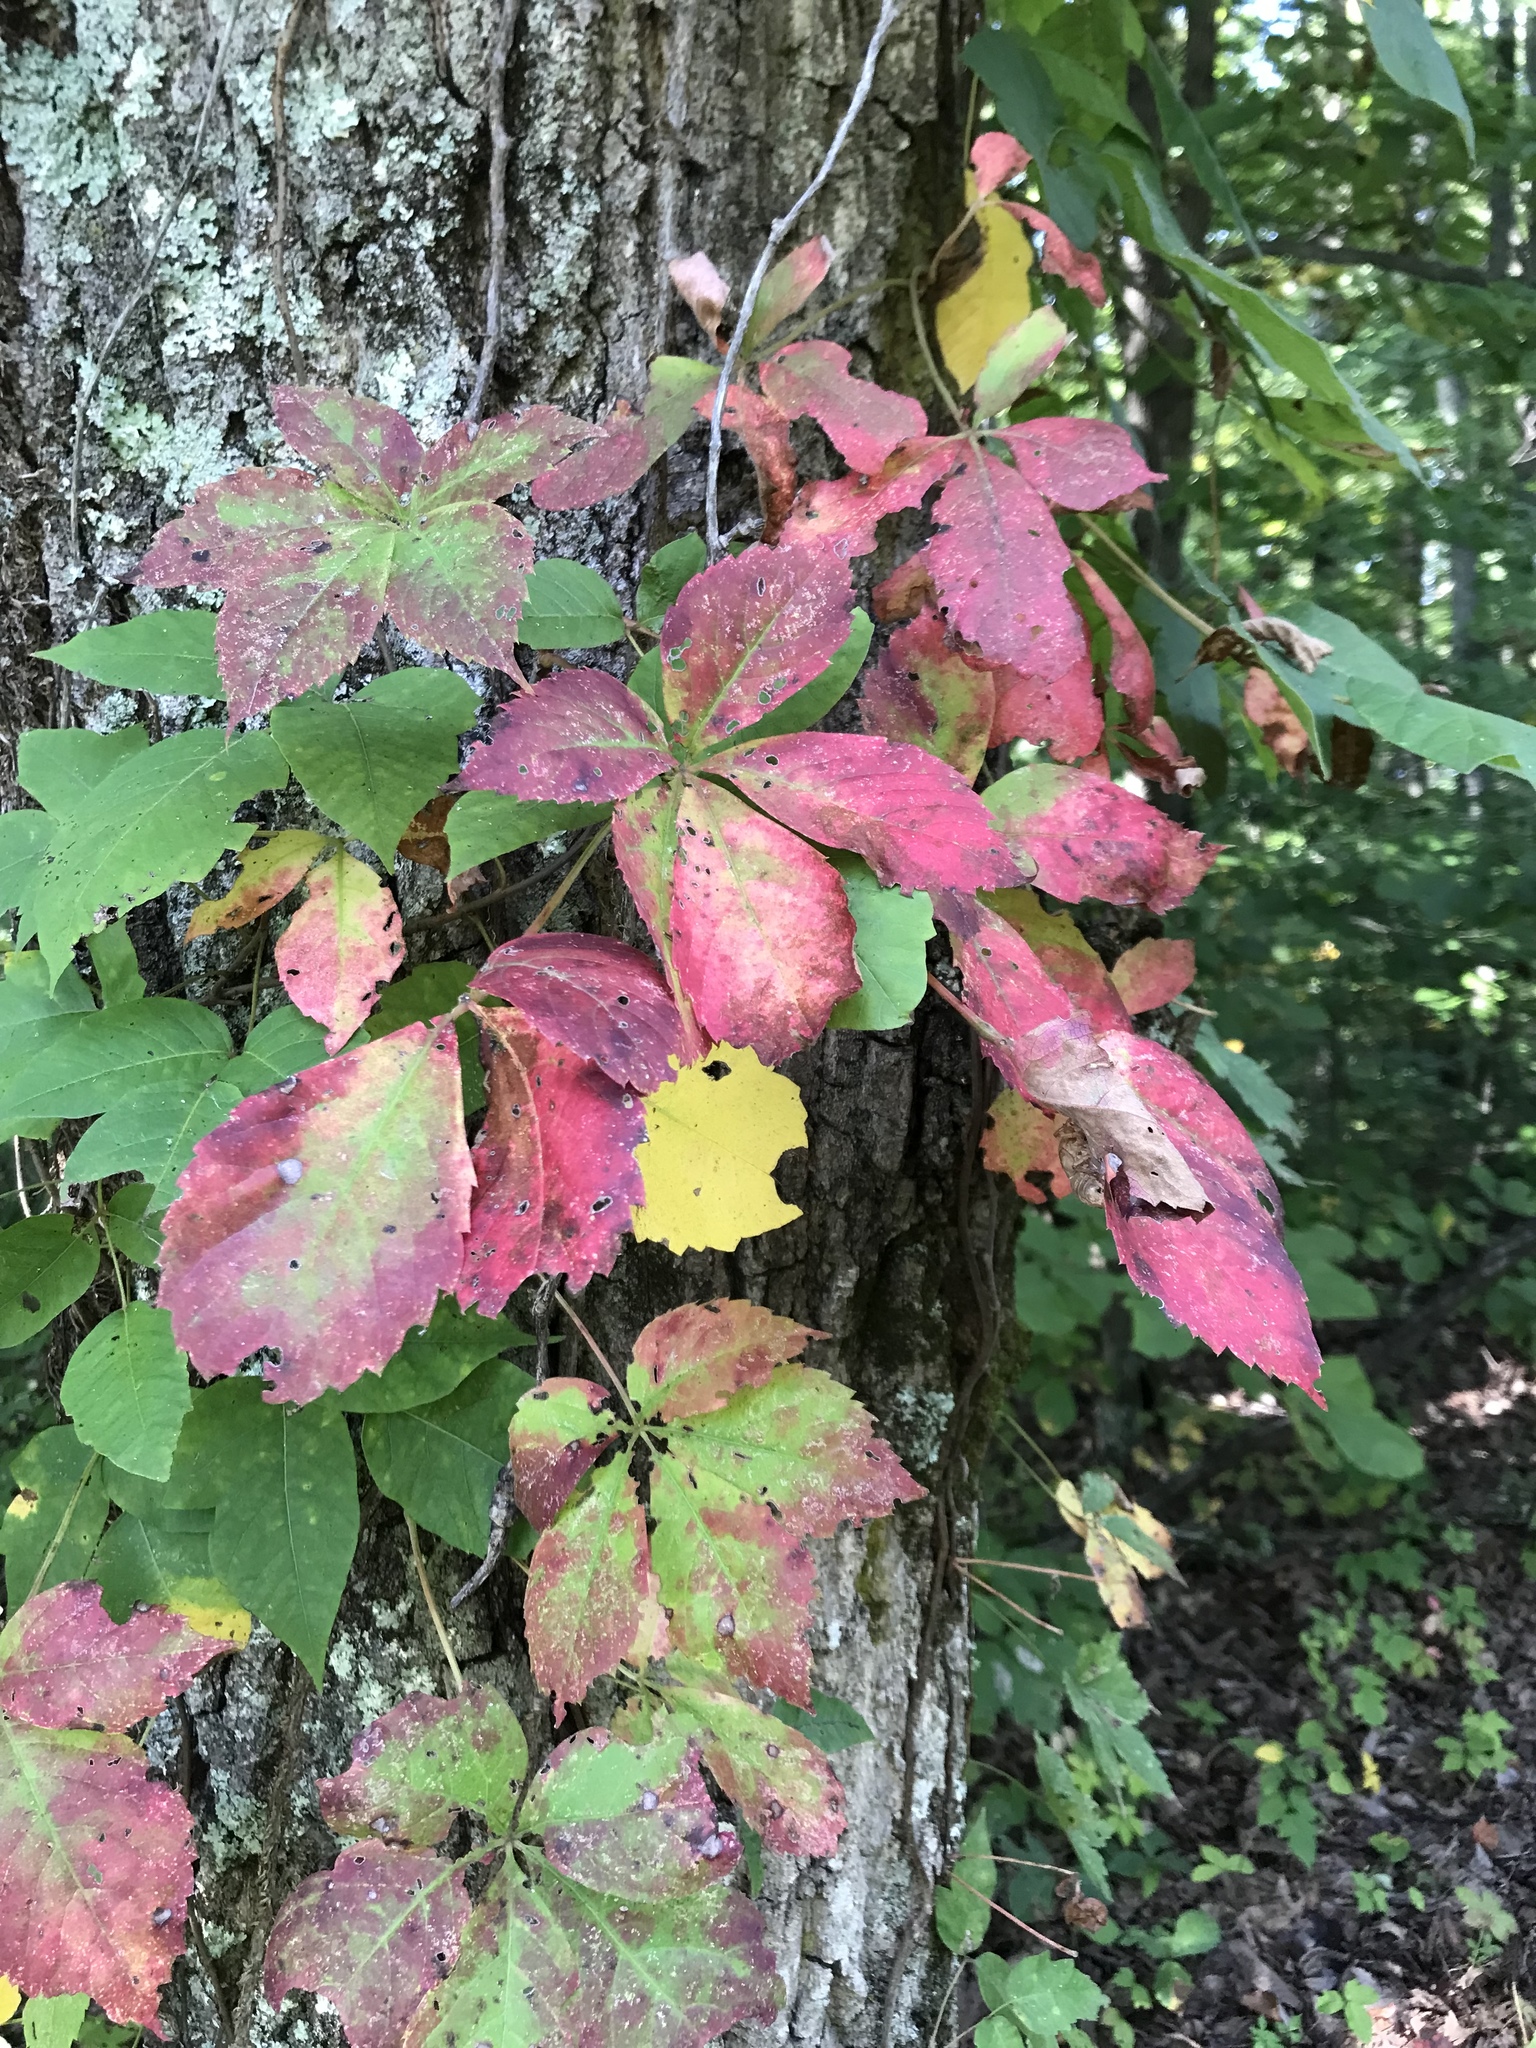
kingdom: Plantae
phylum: Tracheophyta
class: Magnoliopsida
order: Vitales
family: Vitaceae
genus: Parthenocissus
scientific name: Parthenocissus quinquefolia
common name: Virginia-creeper
